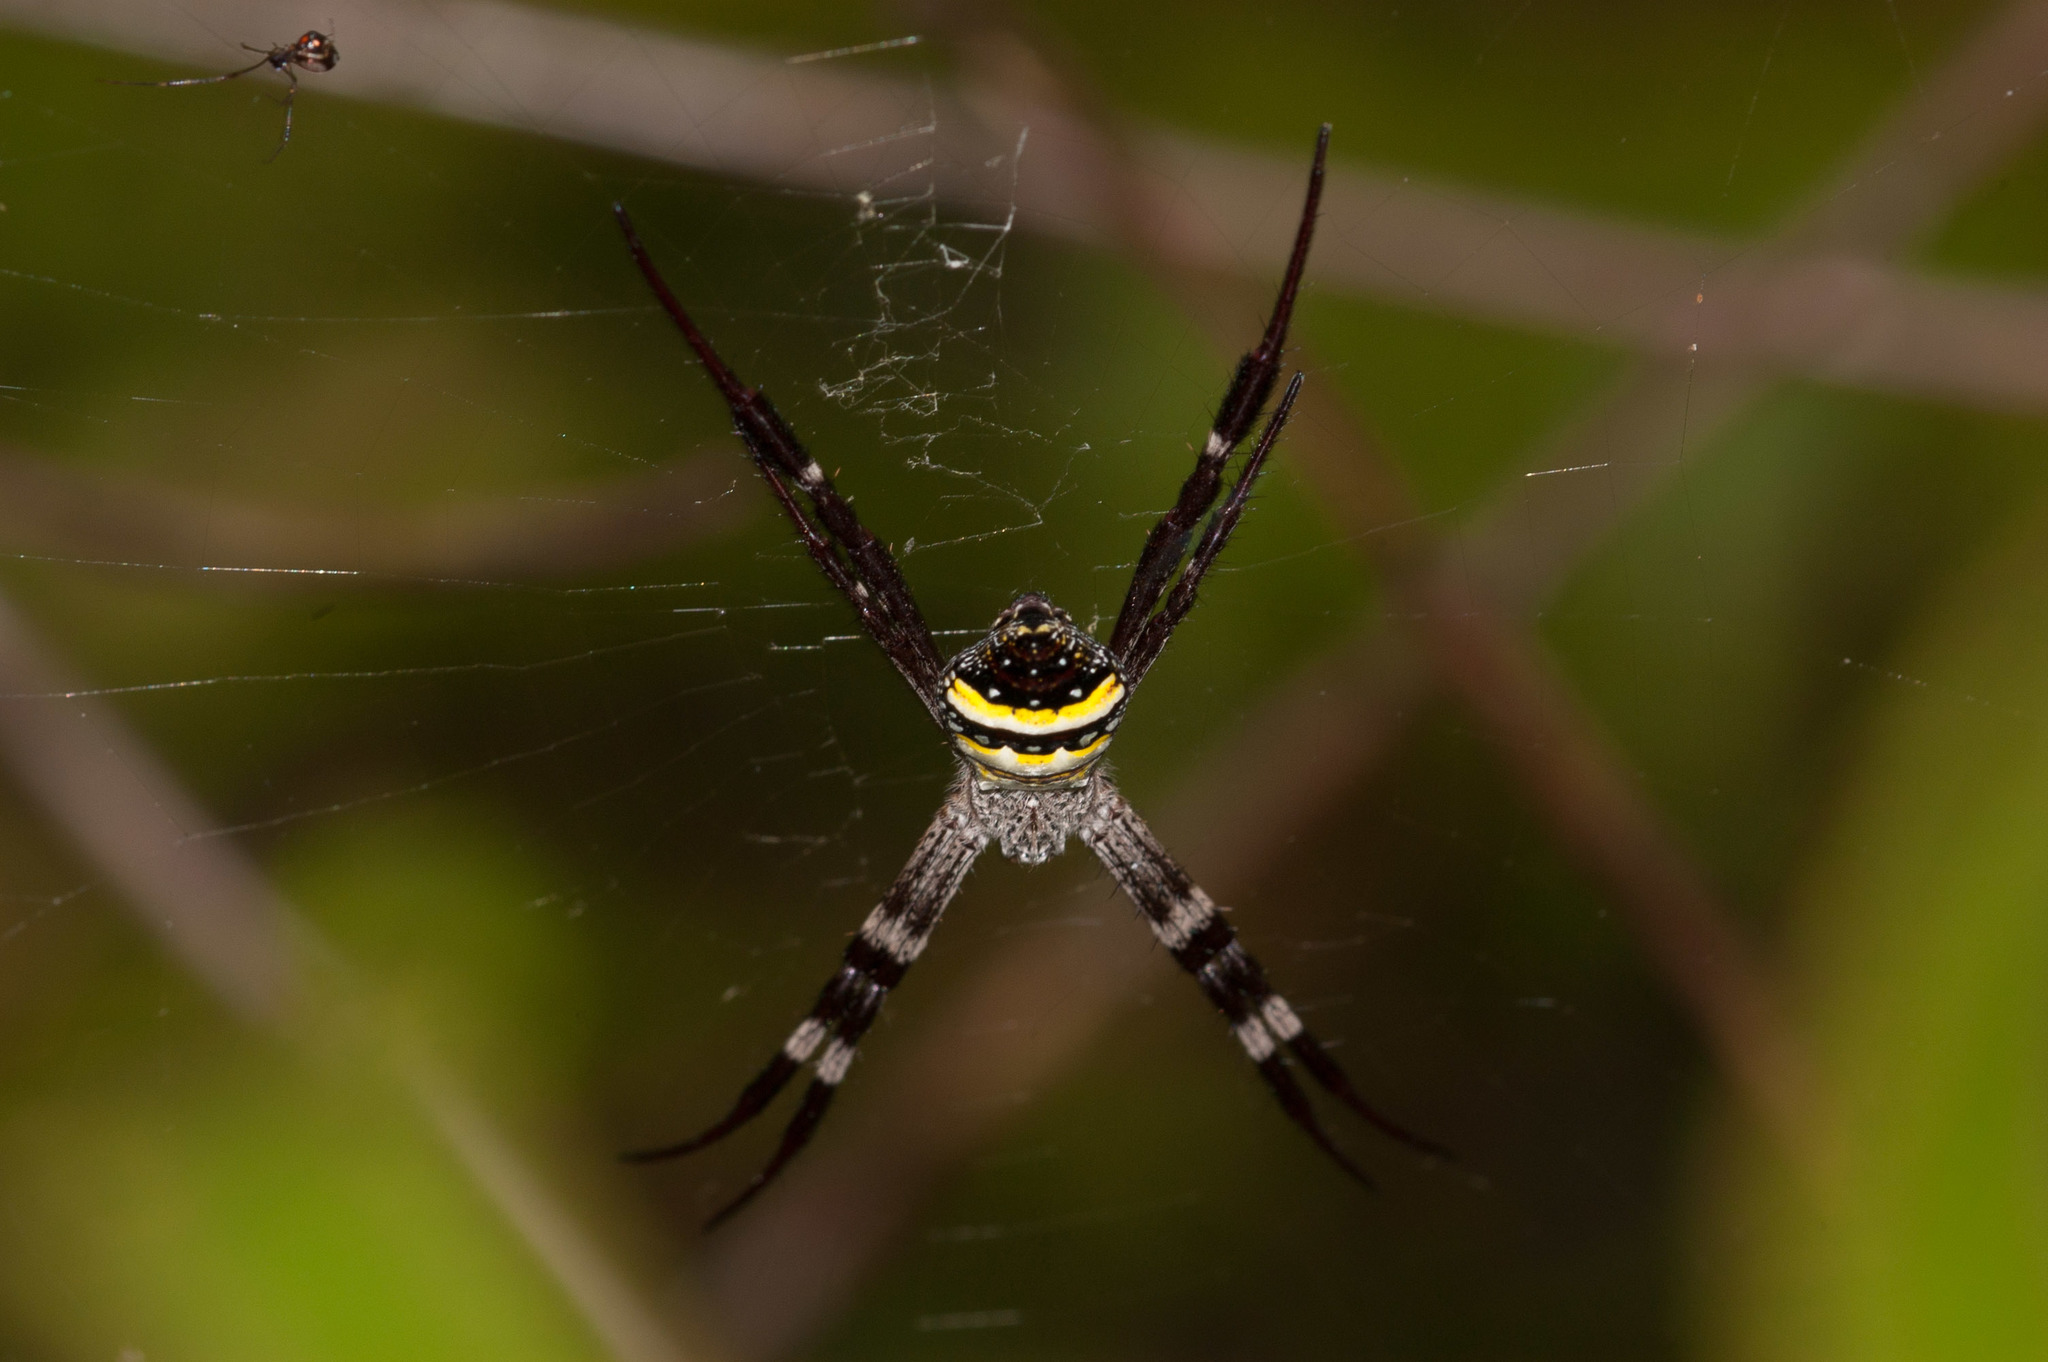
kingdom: Animalia
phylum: Arthropoda
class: Arachnida
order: Araneae
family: Araneidae
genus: Argiope
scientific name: Argiope aetherea
